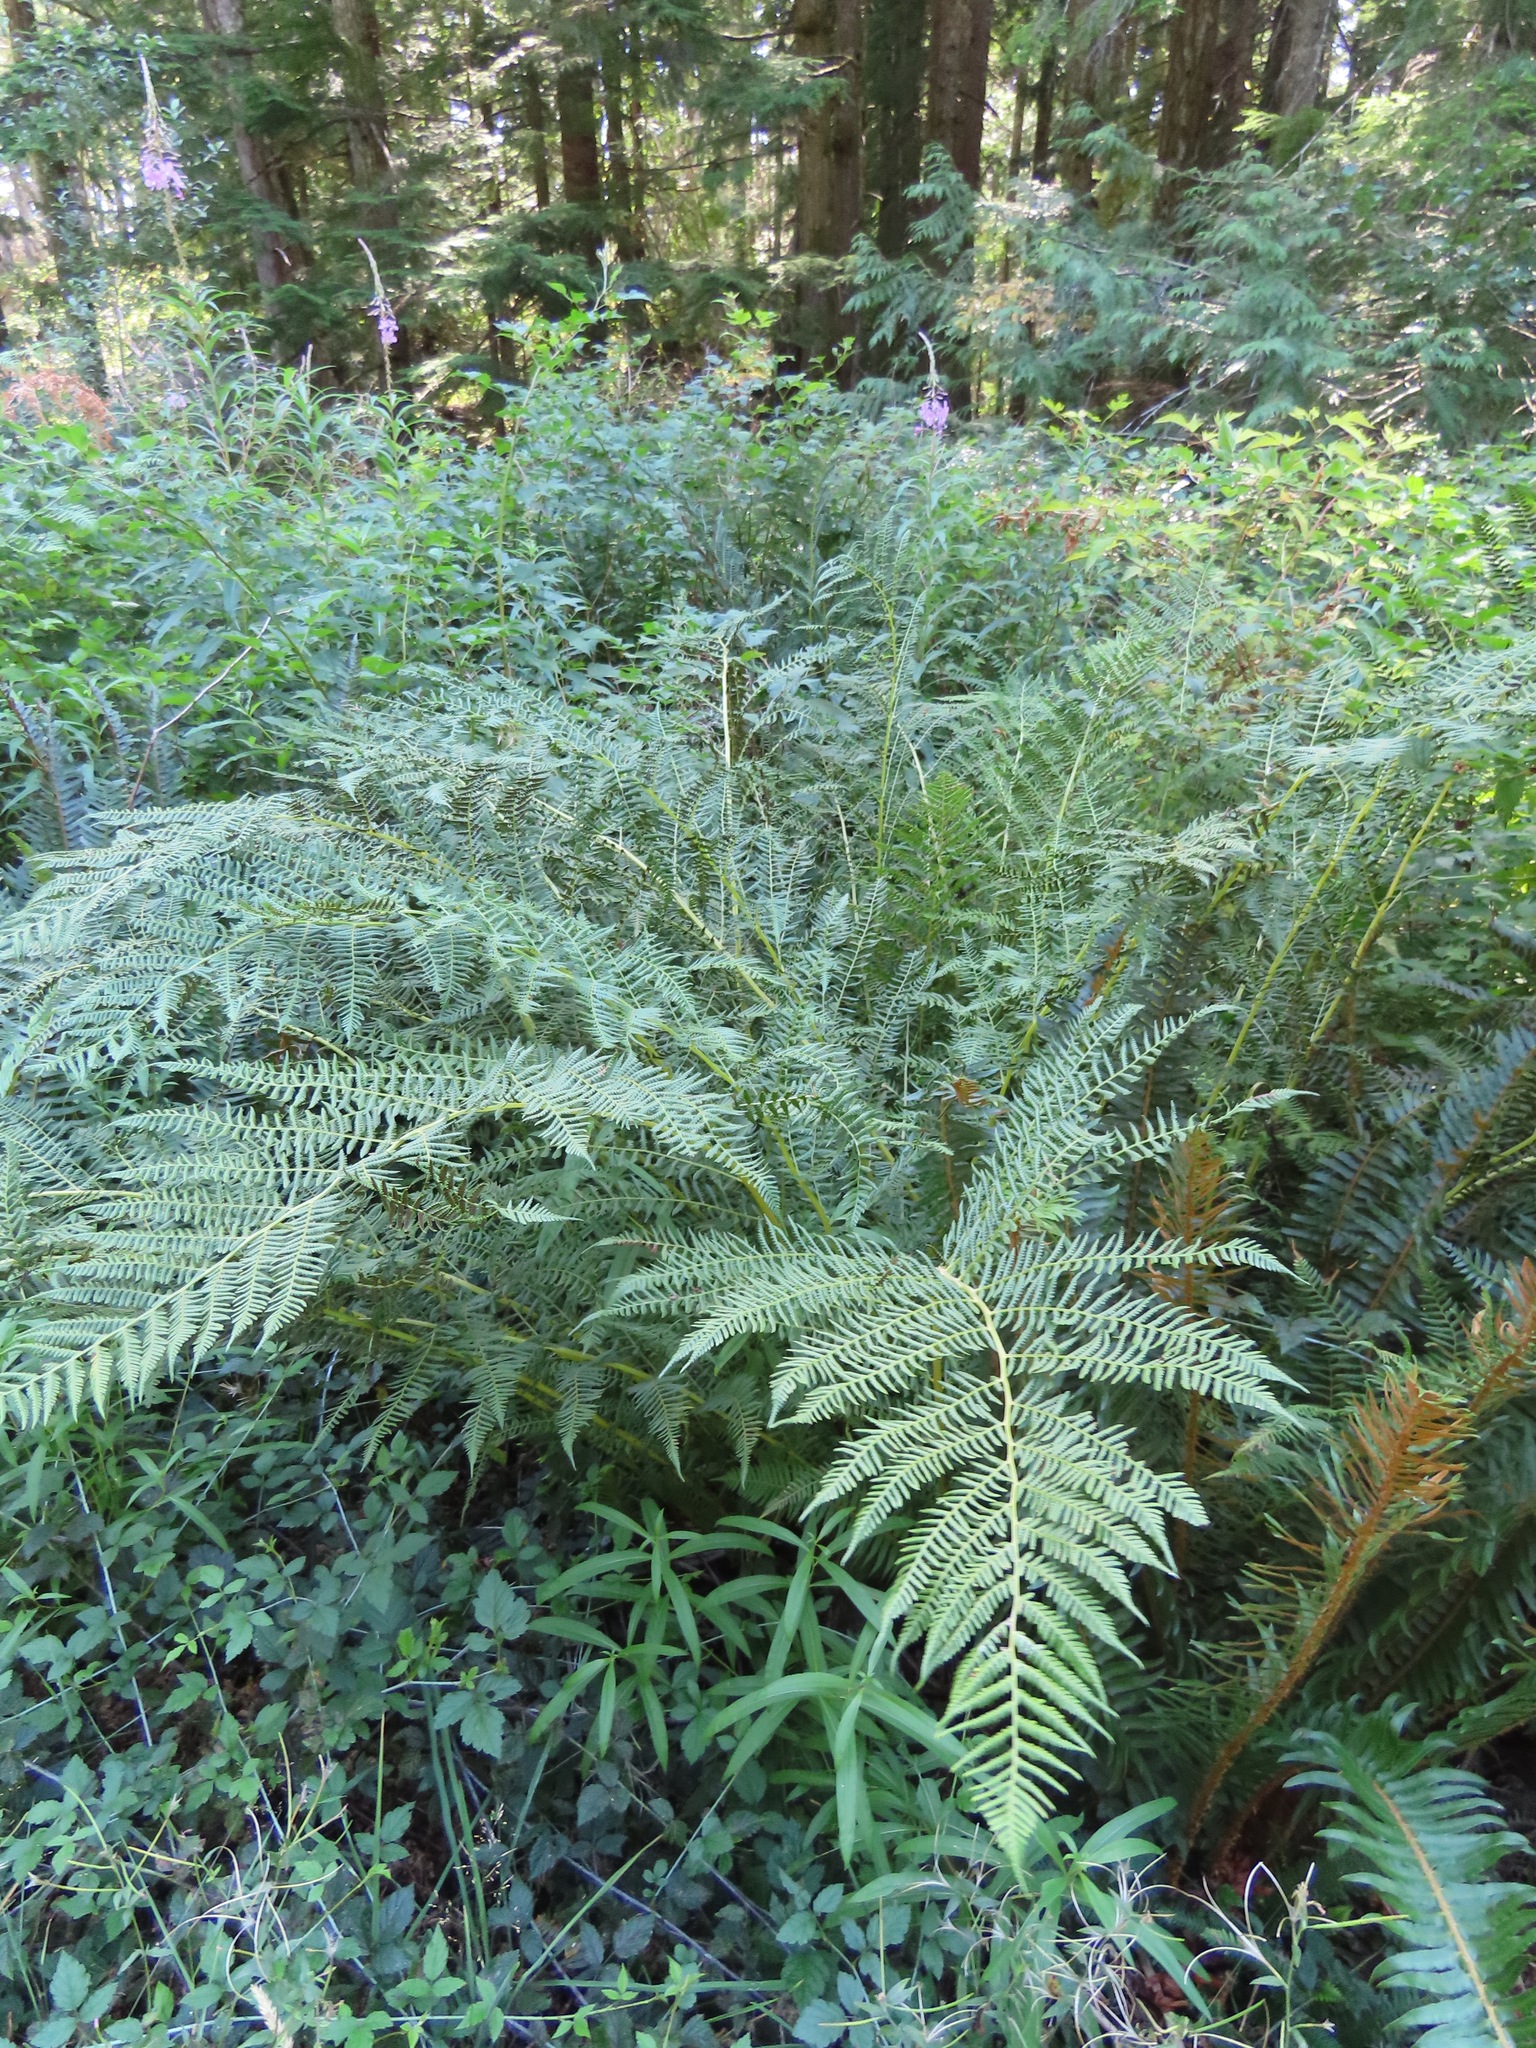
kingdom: Plantae
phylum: Tracheophyta
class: Polypodiopsida
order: Polypodiales
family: Athyriaceae
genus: Athyrium
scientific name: Athyrium filix-femina
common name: Lady fern
